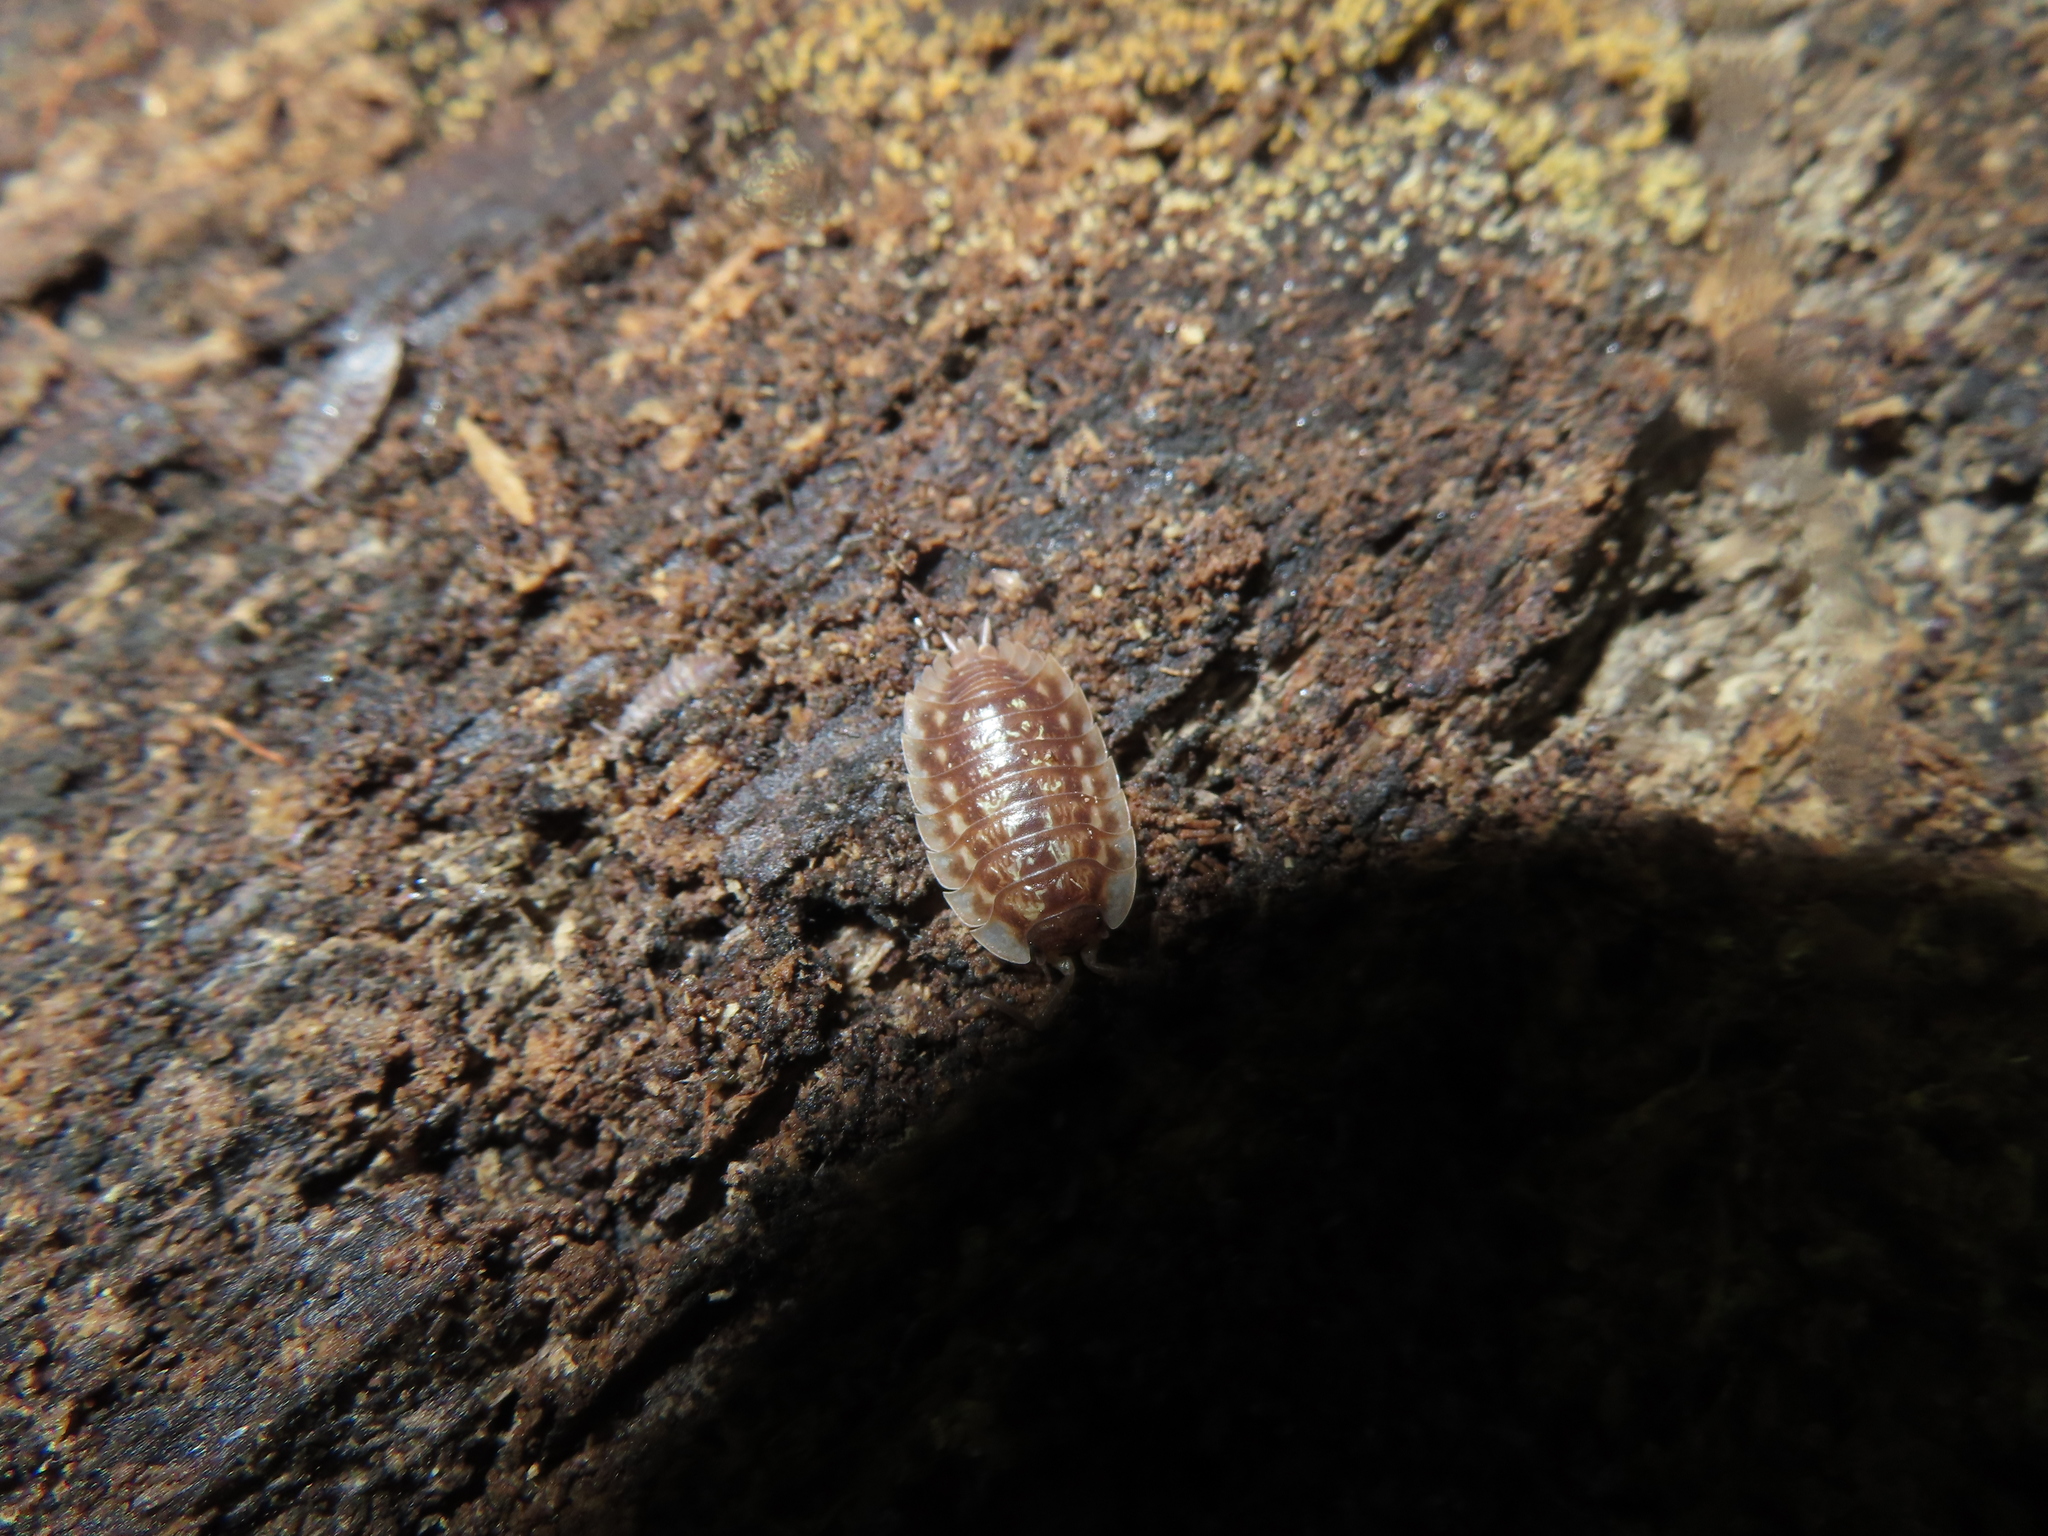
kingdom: Animalia
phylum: Arthropoda
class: Malacostraca
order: Isopoda
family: Oniscidae
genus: Oniscus
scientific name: Oniscus asellus
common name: Common shiny woodlouse
